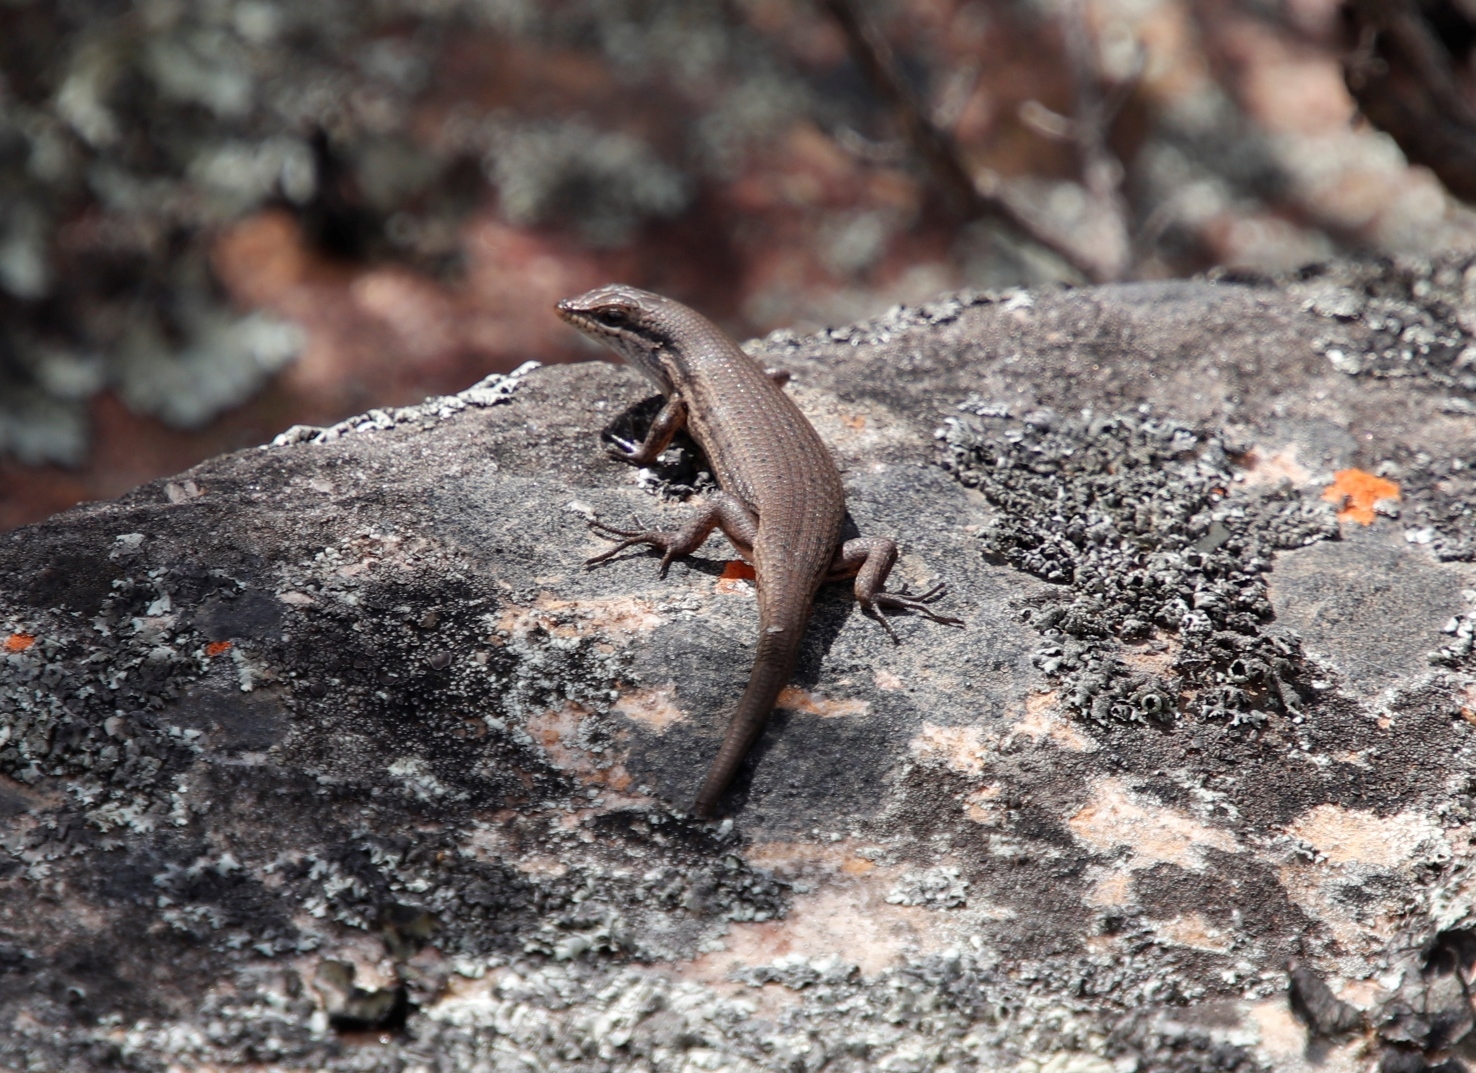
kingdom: Animalia
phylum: Chordata
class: Squamata
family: Scincidae
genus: Trachylepis
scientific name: Trachylepis variegata
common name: Variegated skink
